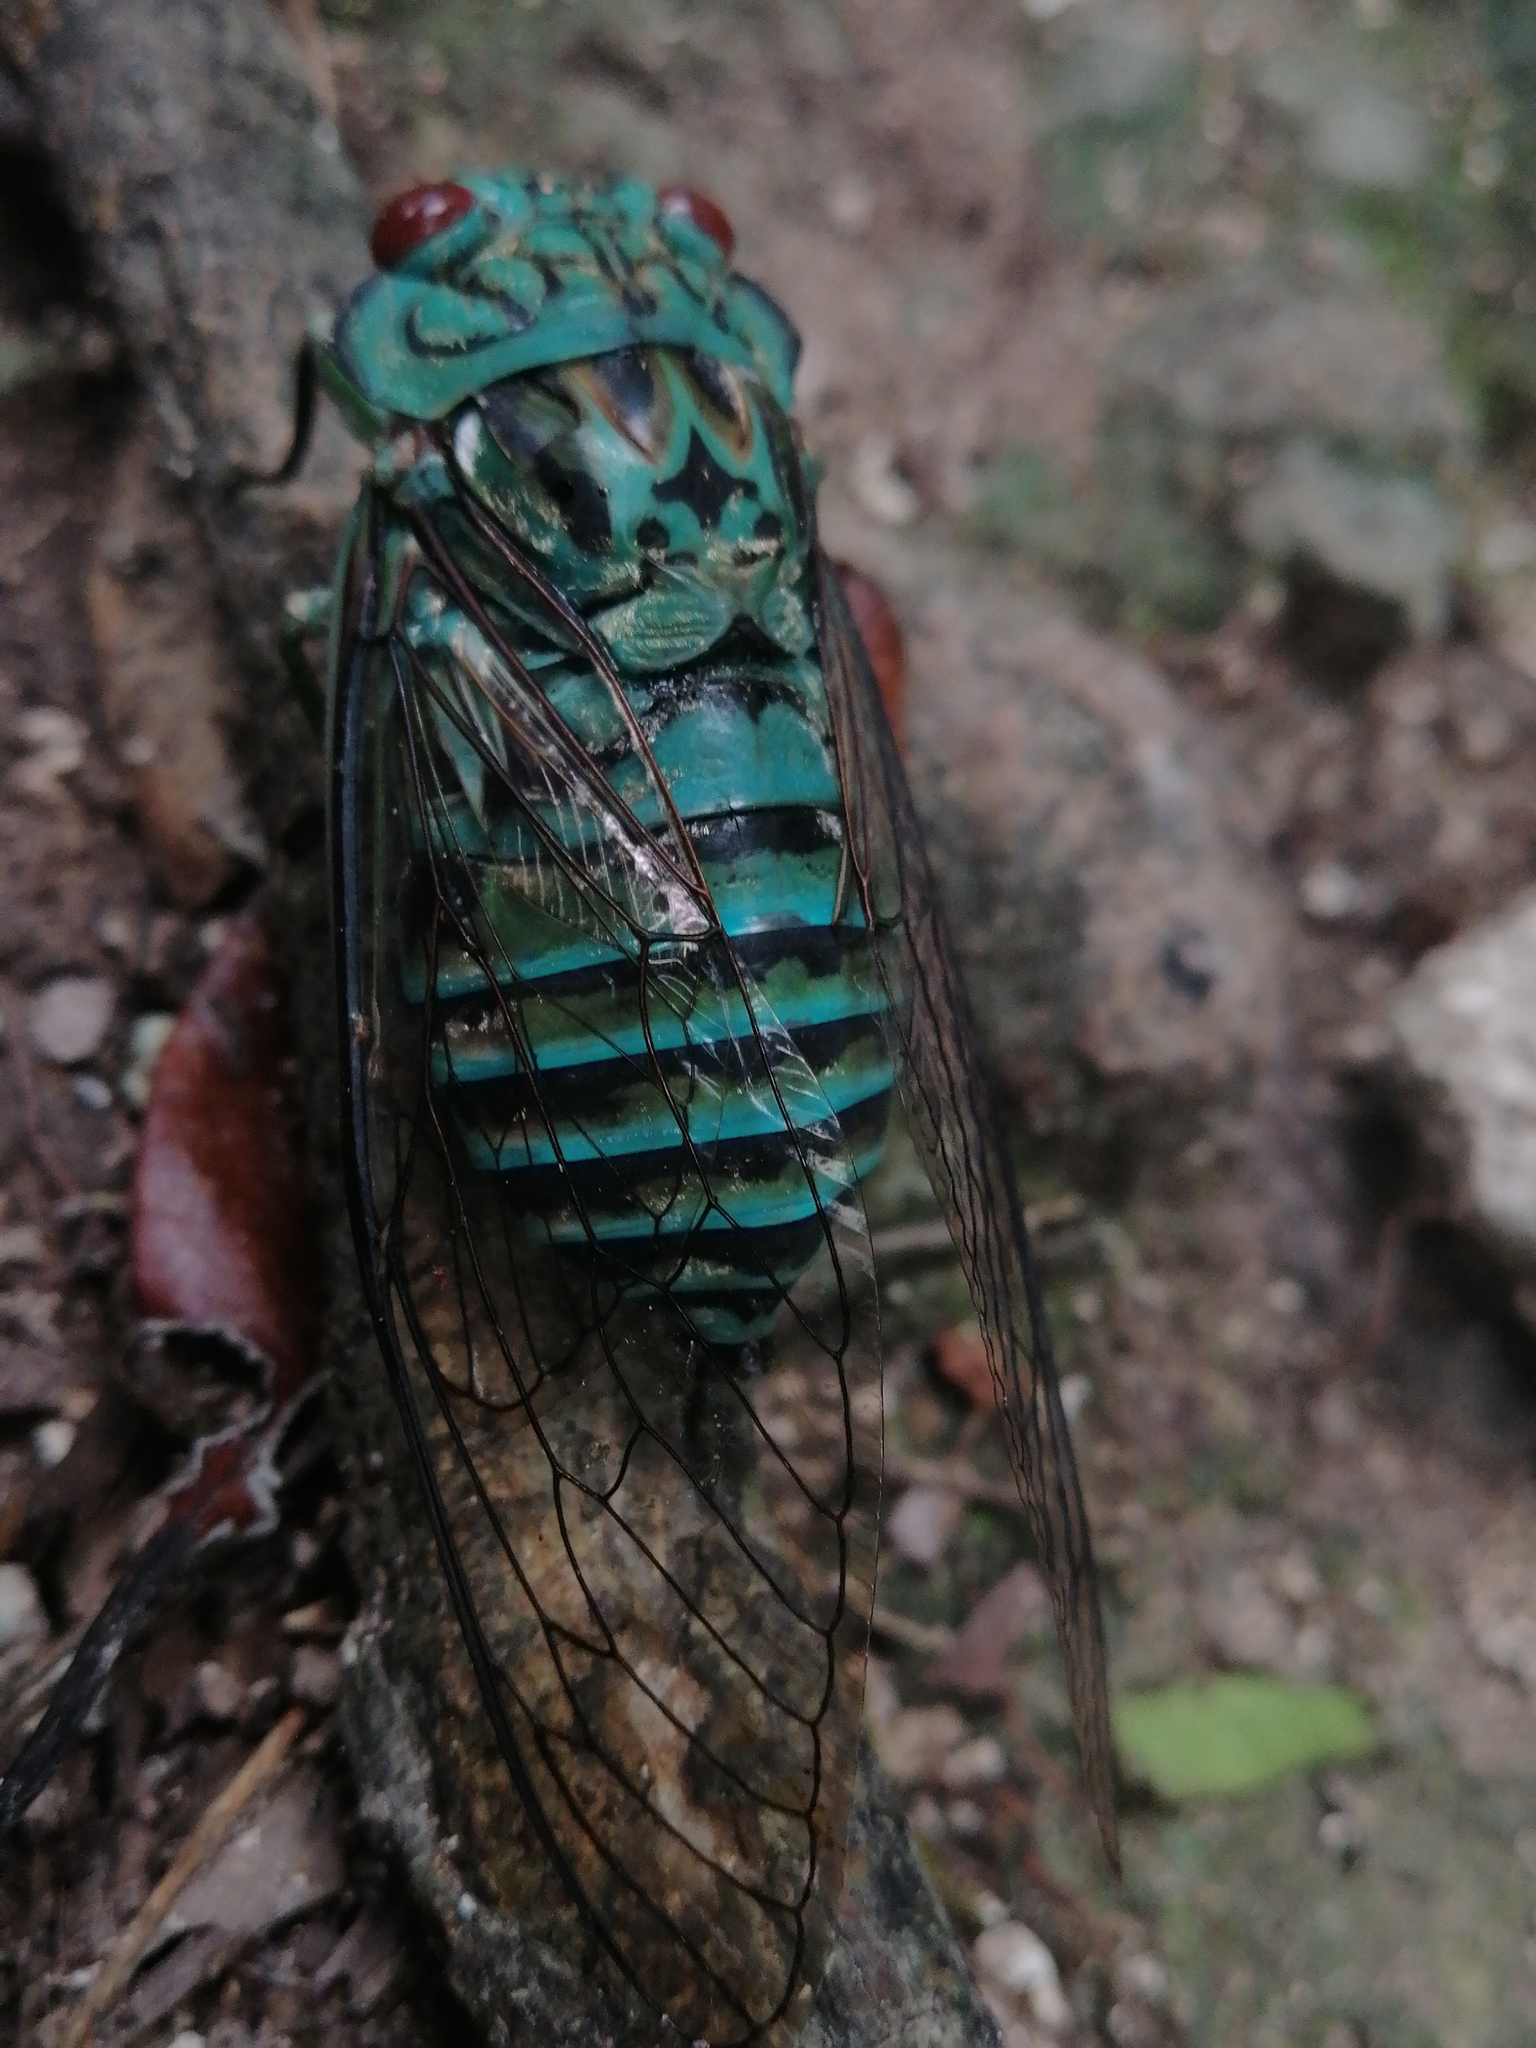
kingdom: Animalia
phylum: Arthropoda
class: Insecta
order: Hemiptera
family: Cicadidae
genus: Daza
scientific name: Daza montezuma
